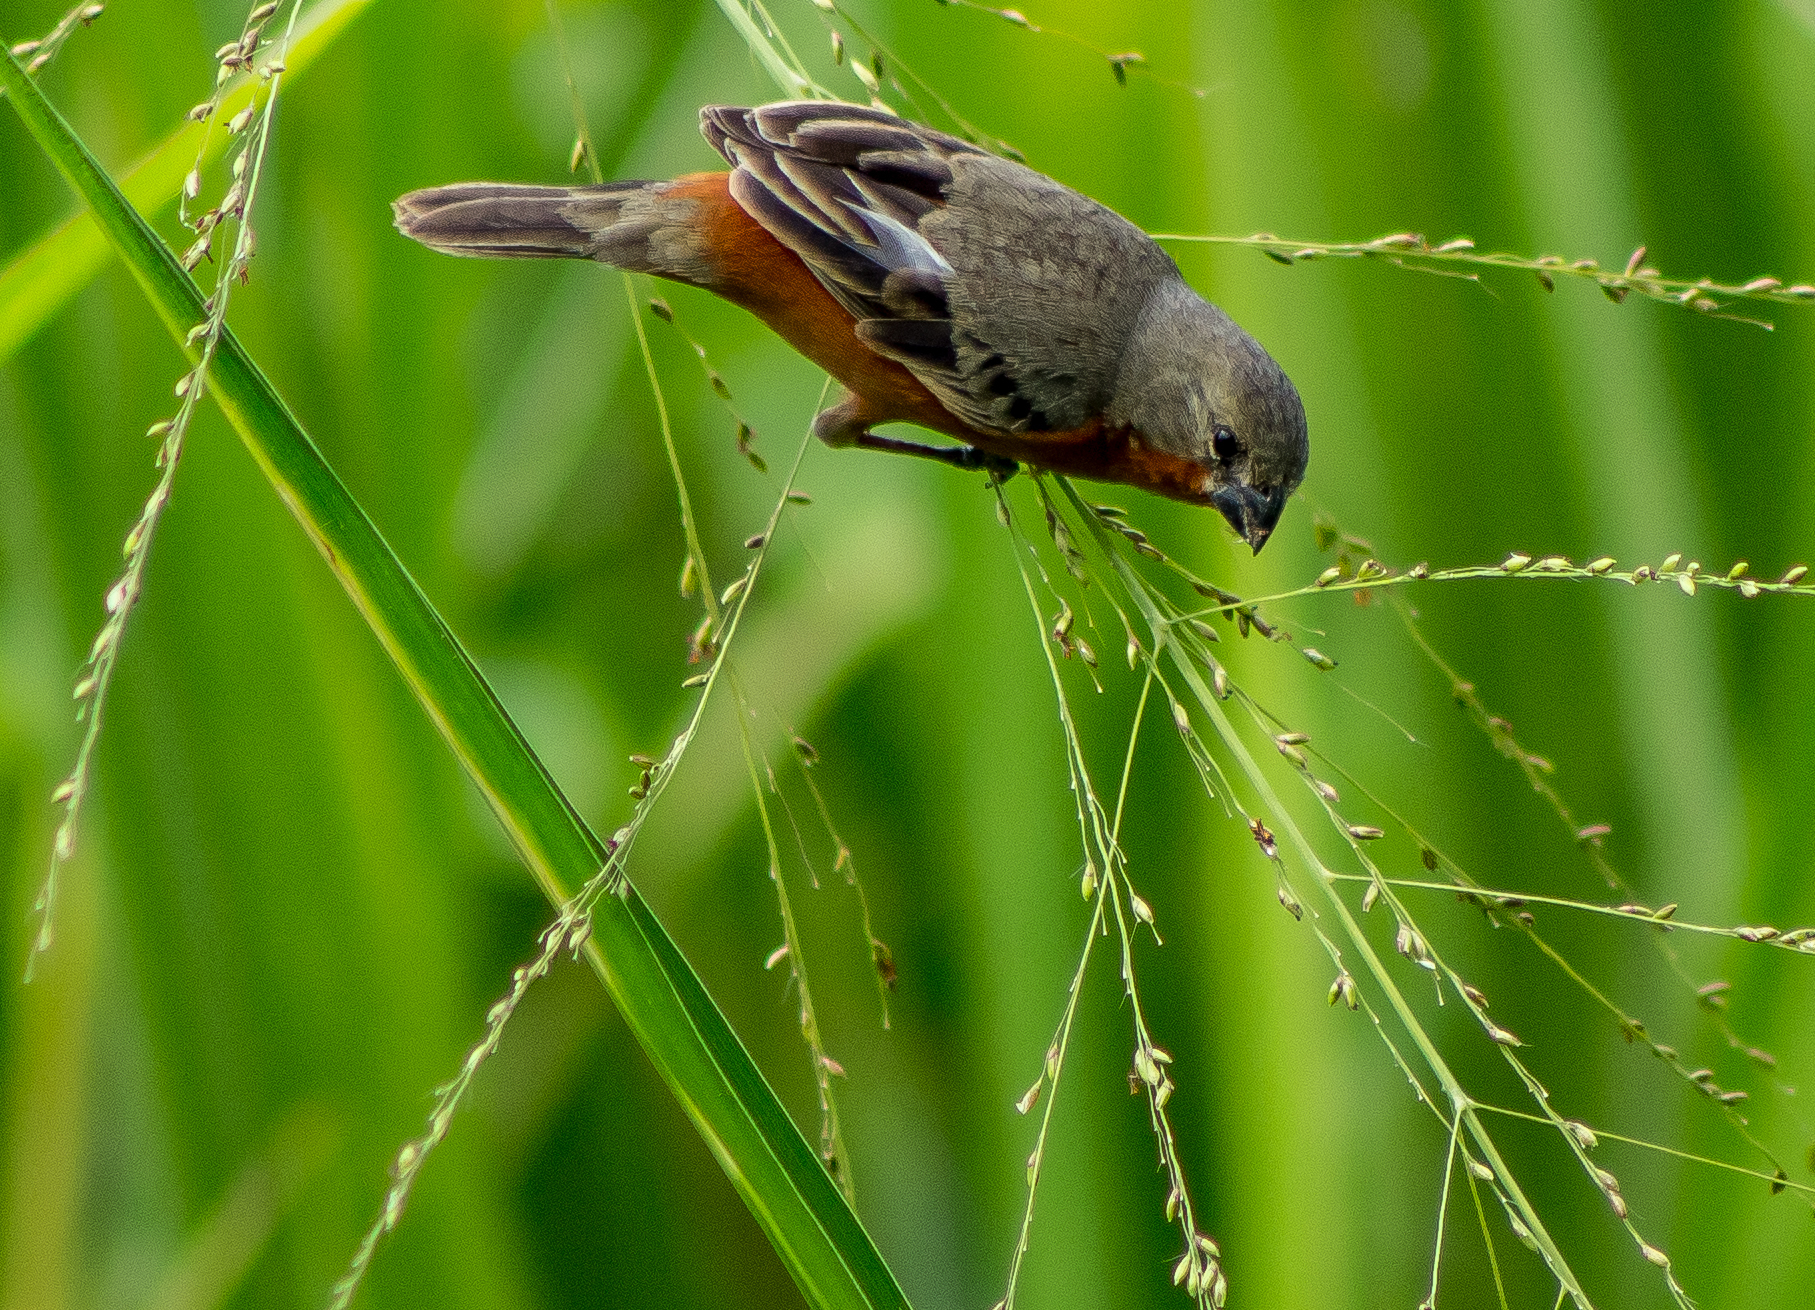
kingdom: Animalia
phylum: Chordata
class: Aves
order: Passeriformes
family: Thraupidae
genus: Sporophila
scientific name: Sporophila minuta
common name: Ruddy-breasted seedeater
